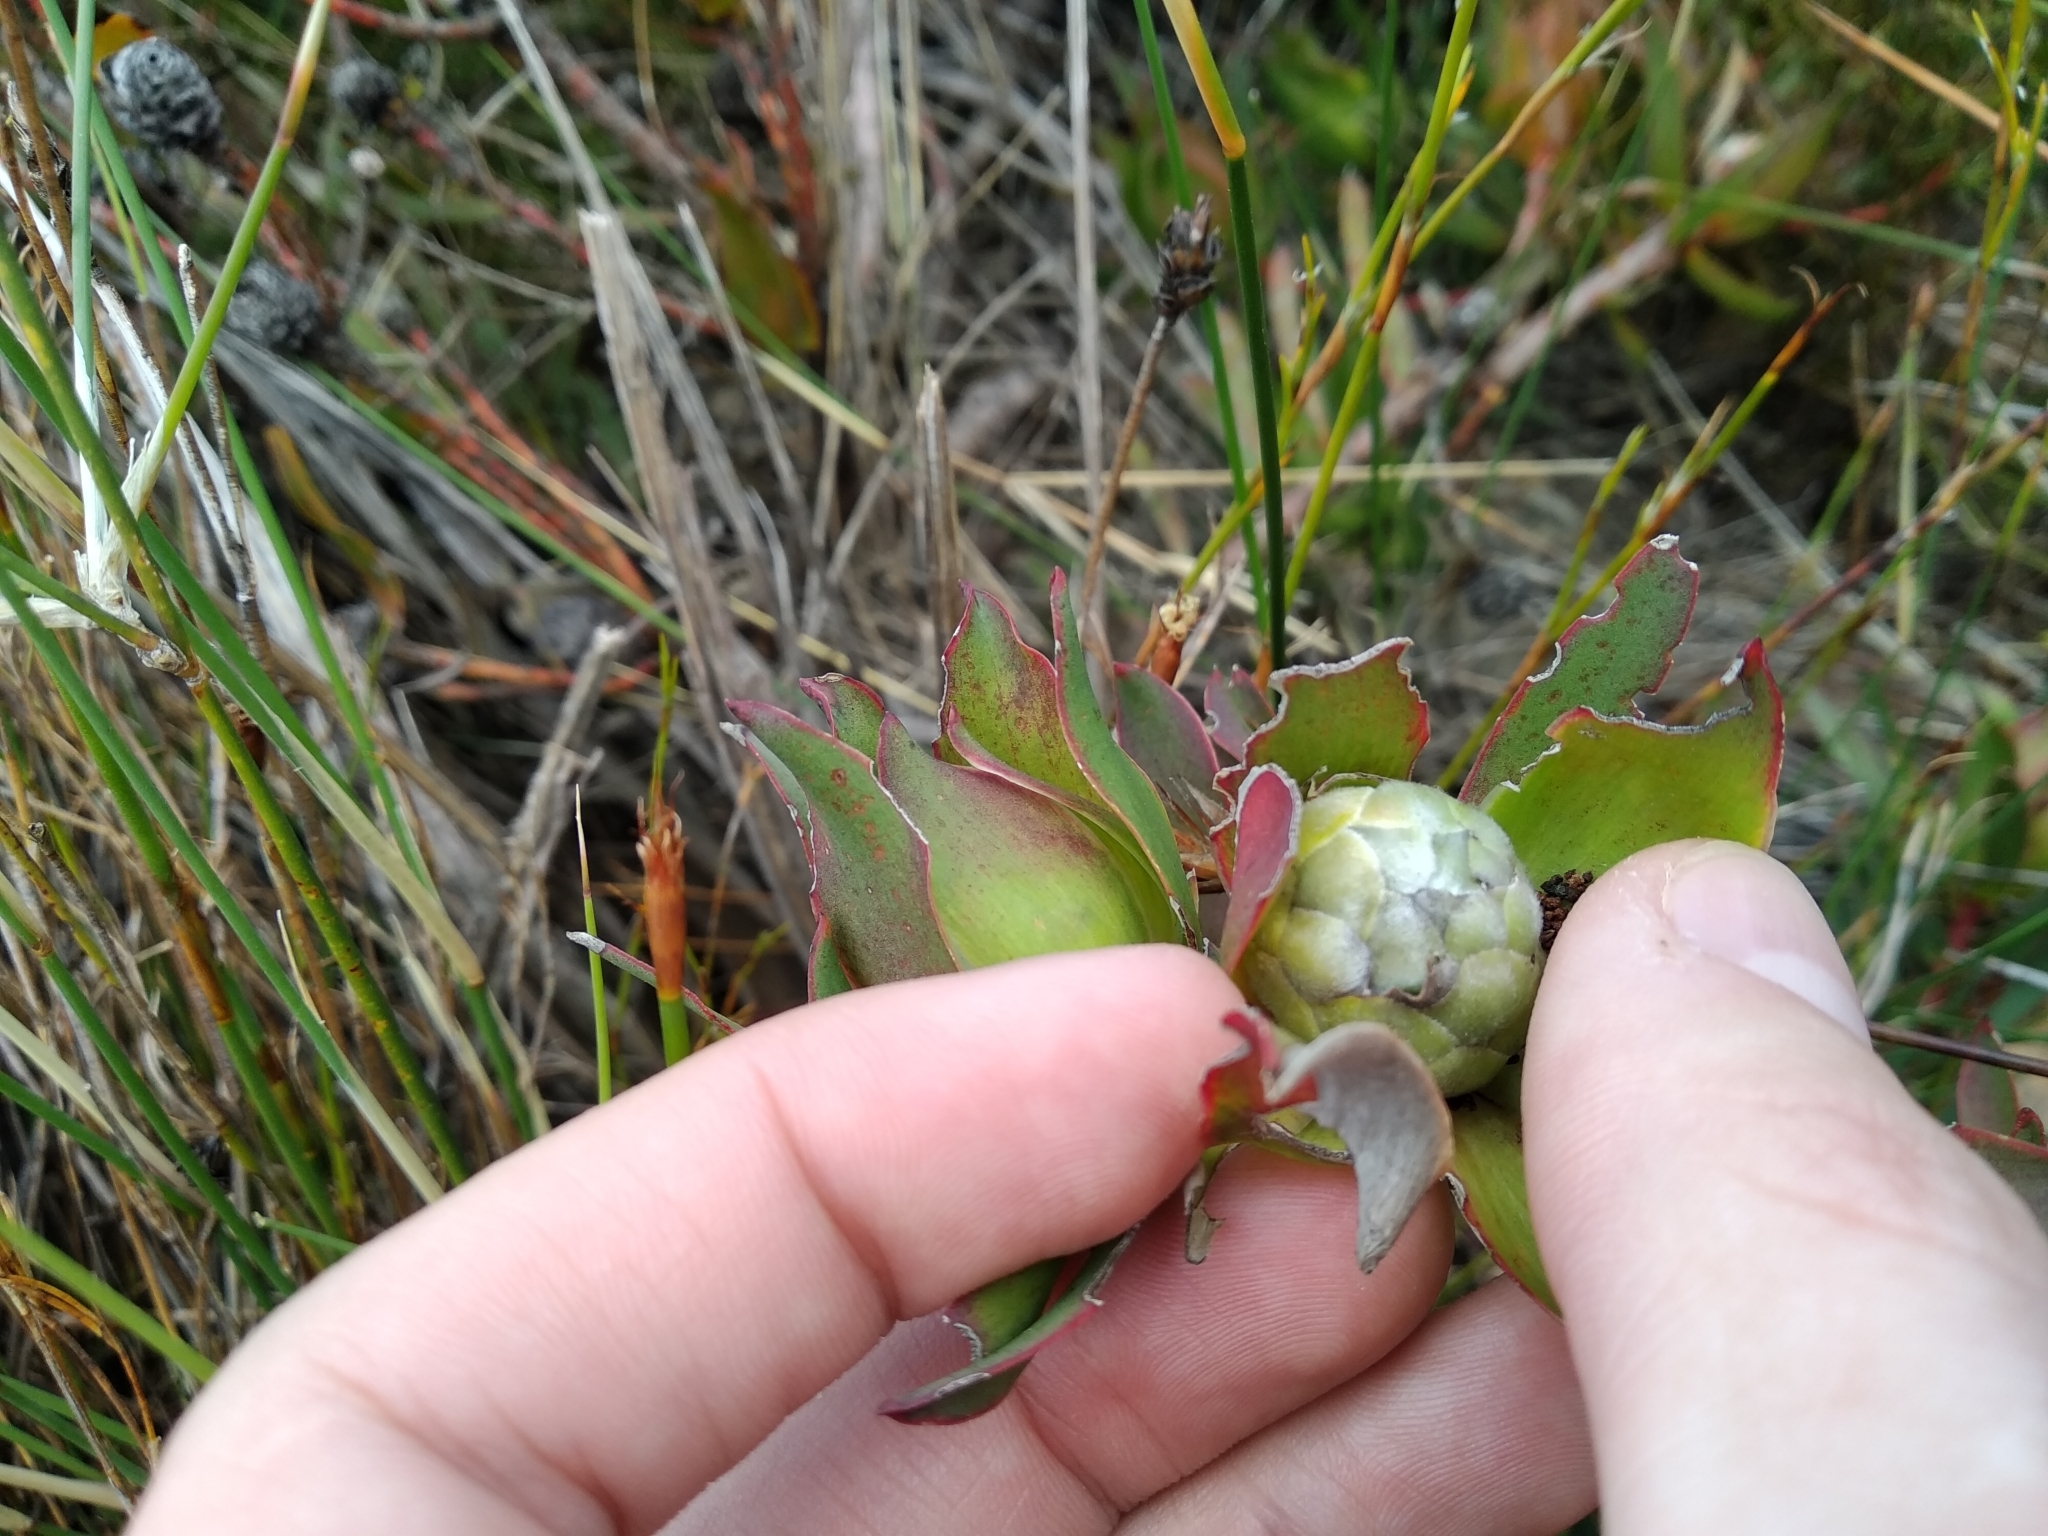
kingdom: Plantae
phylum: Tracheophyta
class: Magnoliopsida
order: Proteales
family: Proteaceae
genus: Leucadendron
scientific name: Leucadendron salignum
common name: Common sunshine conebush
